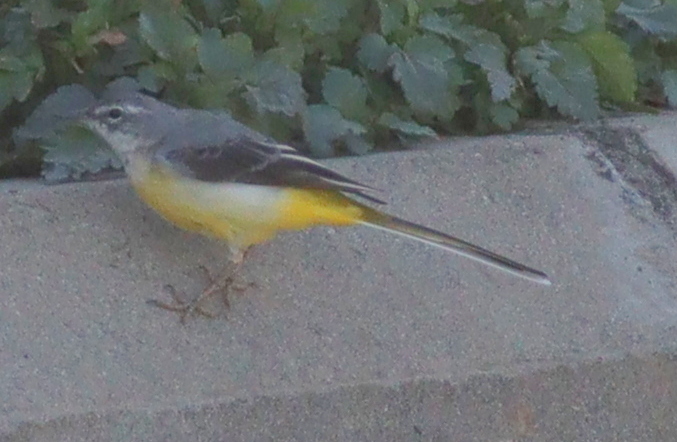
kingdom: Animalia
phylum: Chordata
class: Aves
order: Passeriformes
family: Motacillidae
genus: Motacilla
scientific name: Motacilla cinerea
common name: Grey wagtail
